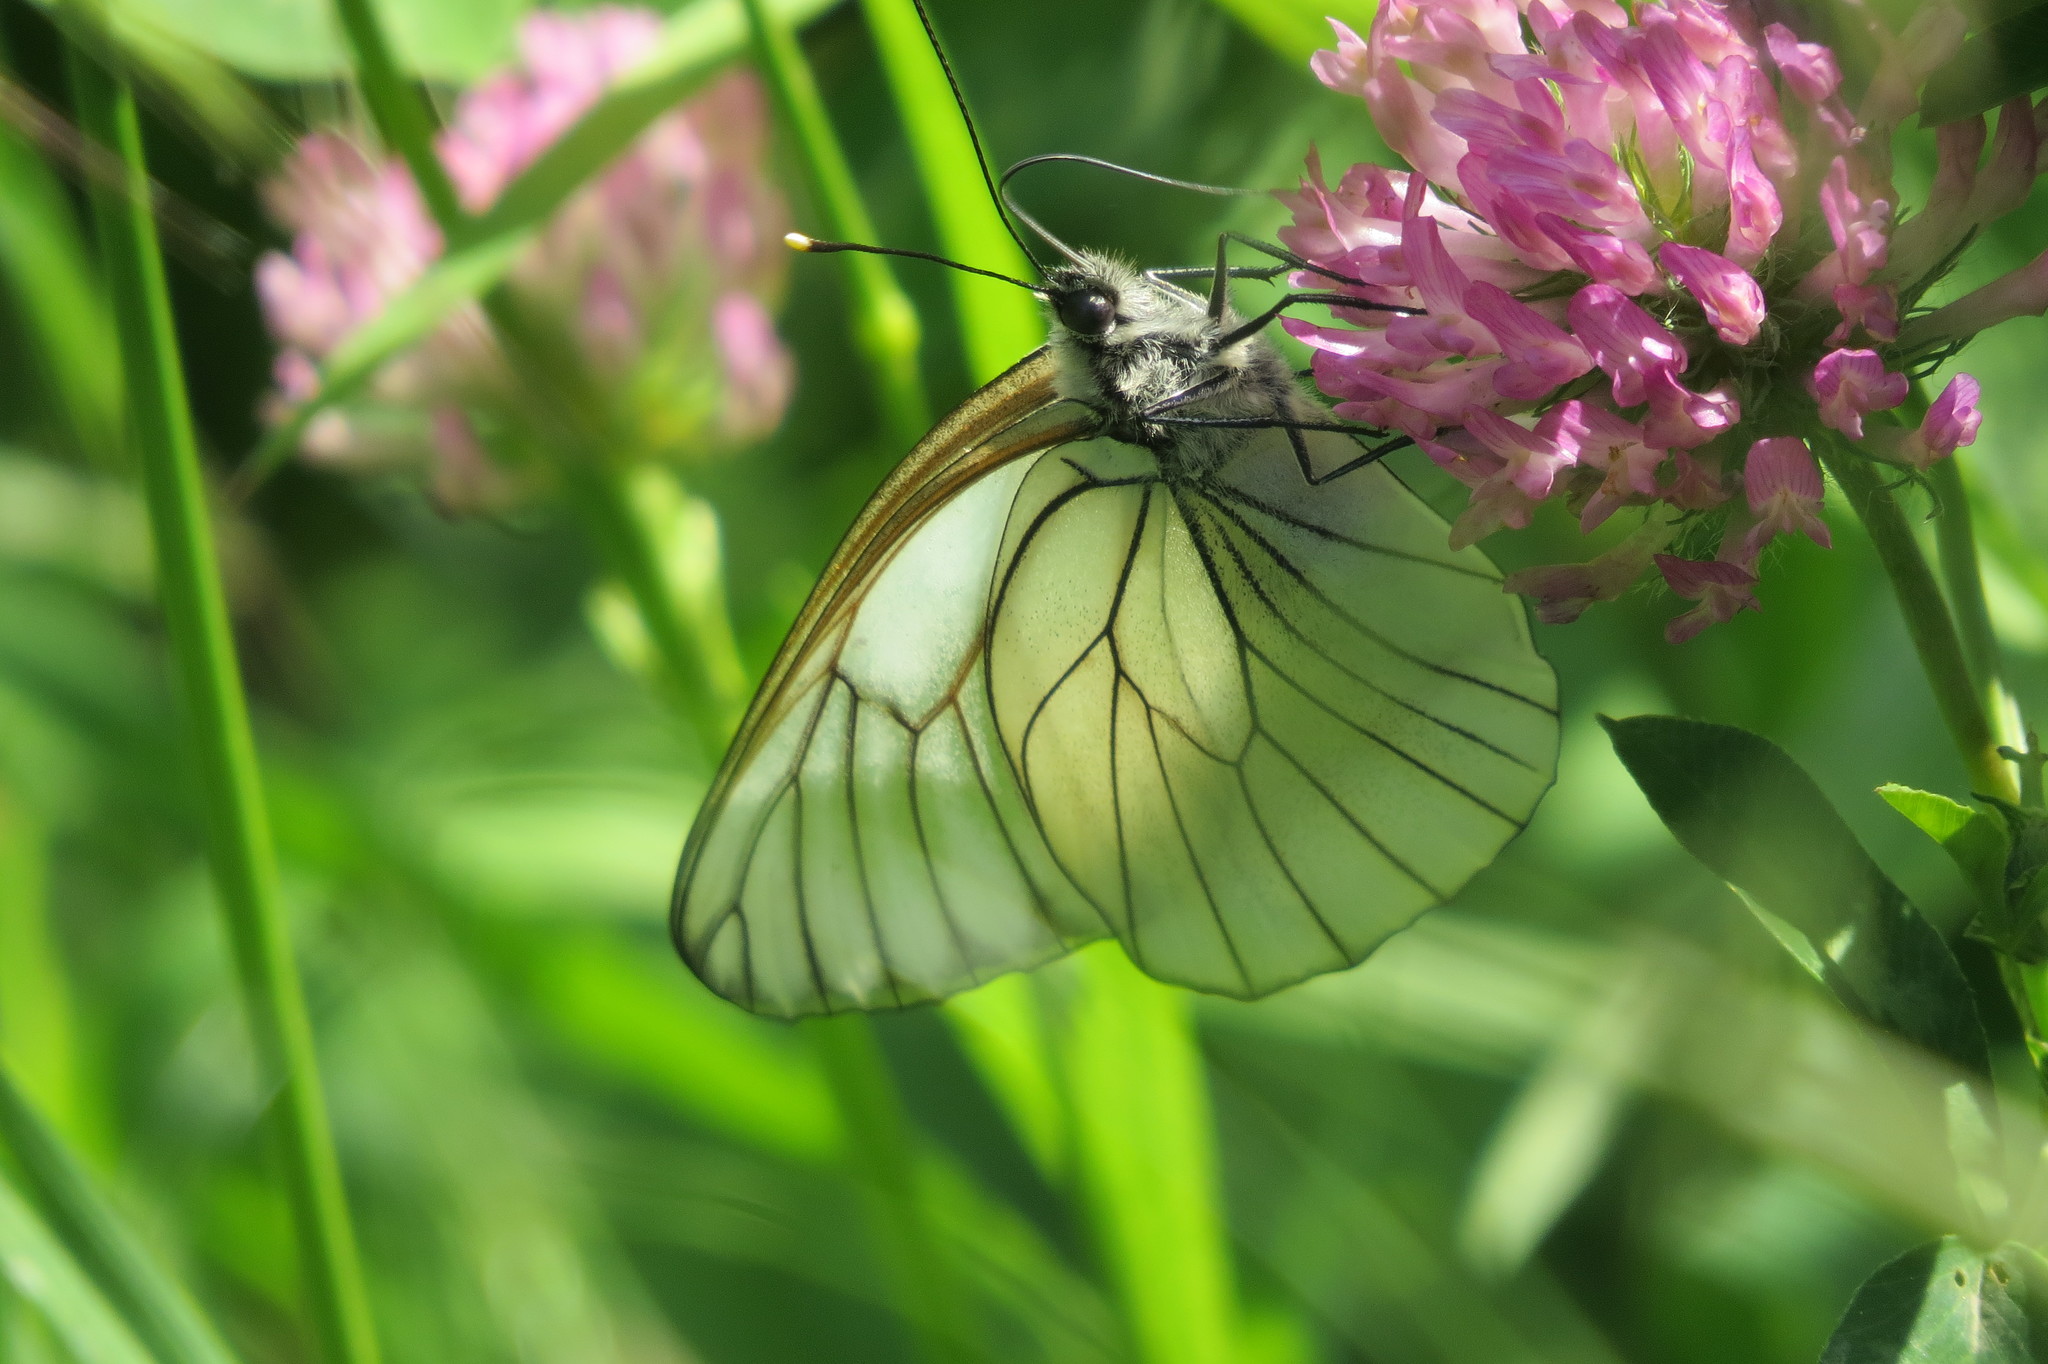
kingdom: Animalia
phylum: Arthropoda
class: Insecta
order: Lepidoptera
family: Pieridae
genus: Aporia
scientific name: Aporia crataegi
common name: Black-veined white
